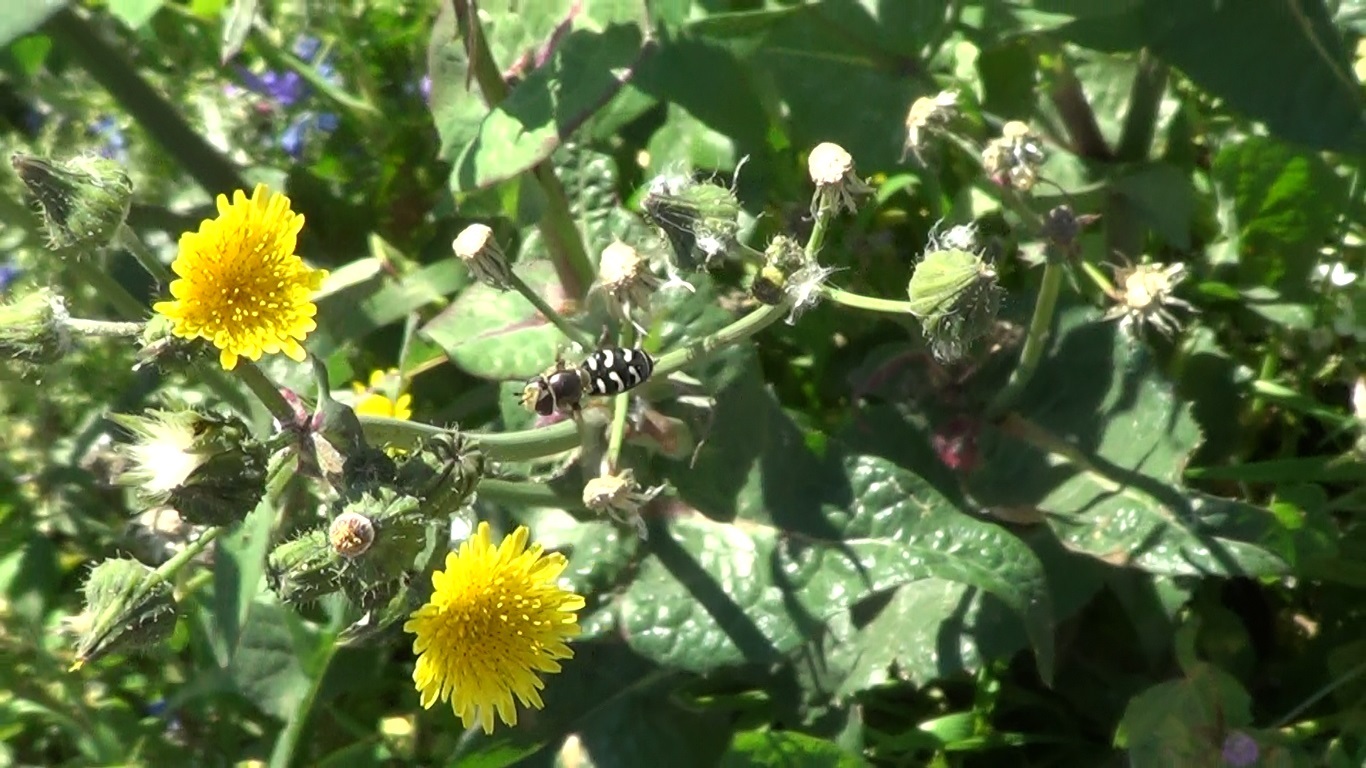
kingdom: Animalia
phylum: Arthropoda
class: Insecta
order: Diptera
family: Syrphidae
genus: Scaeva
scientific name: Scaeva pyrastri
